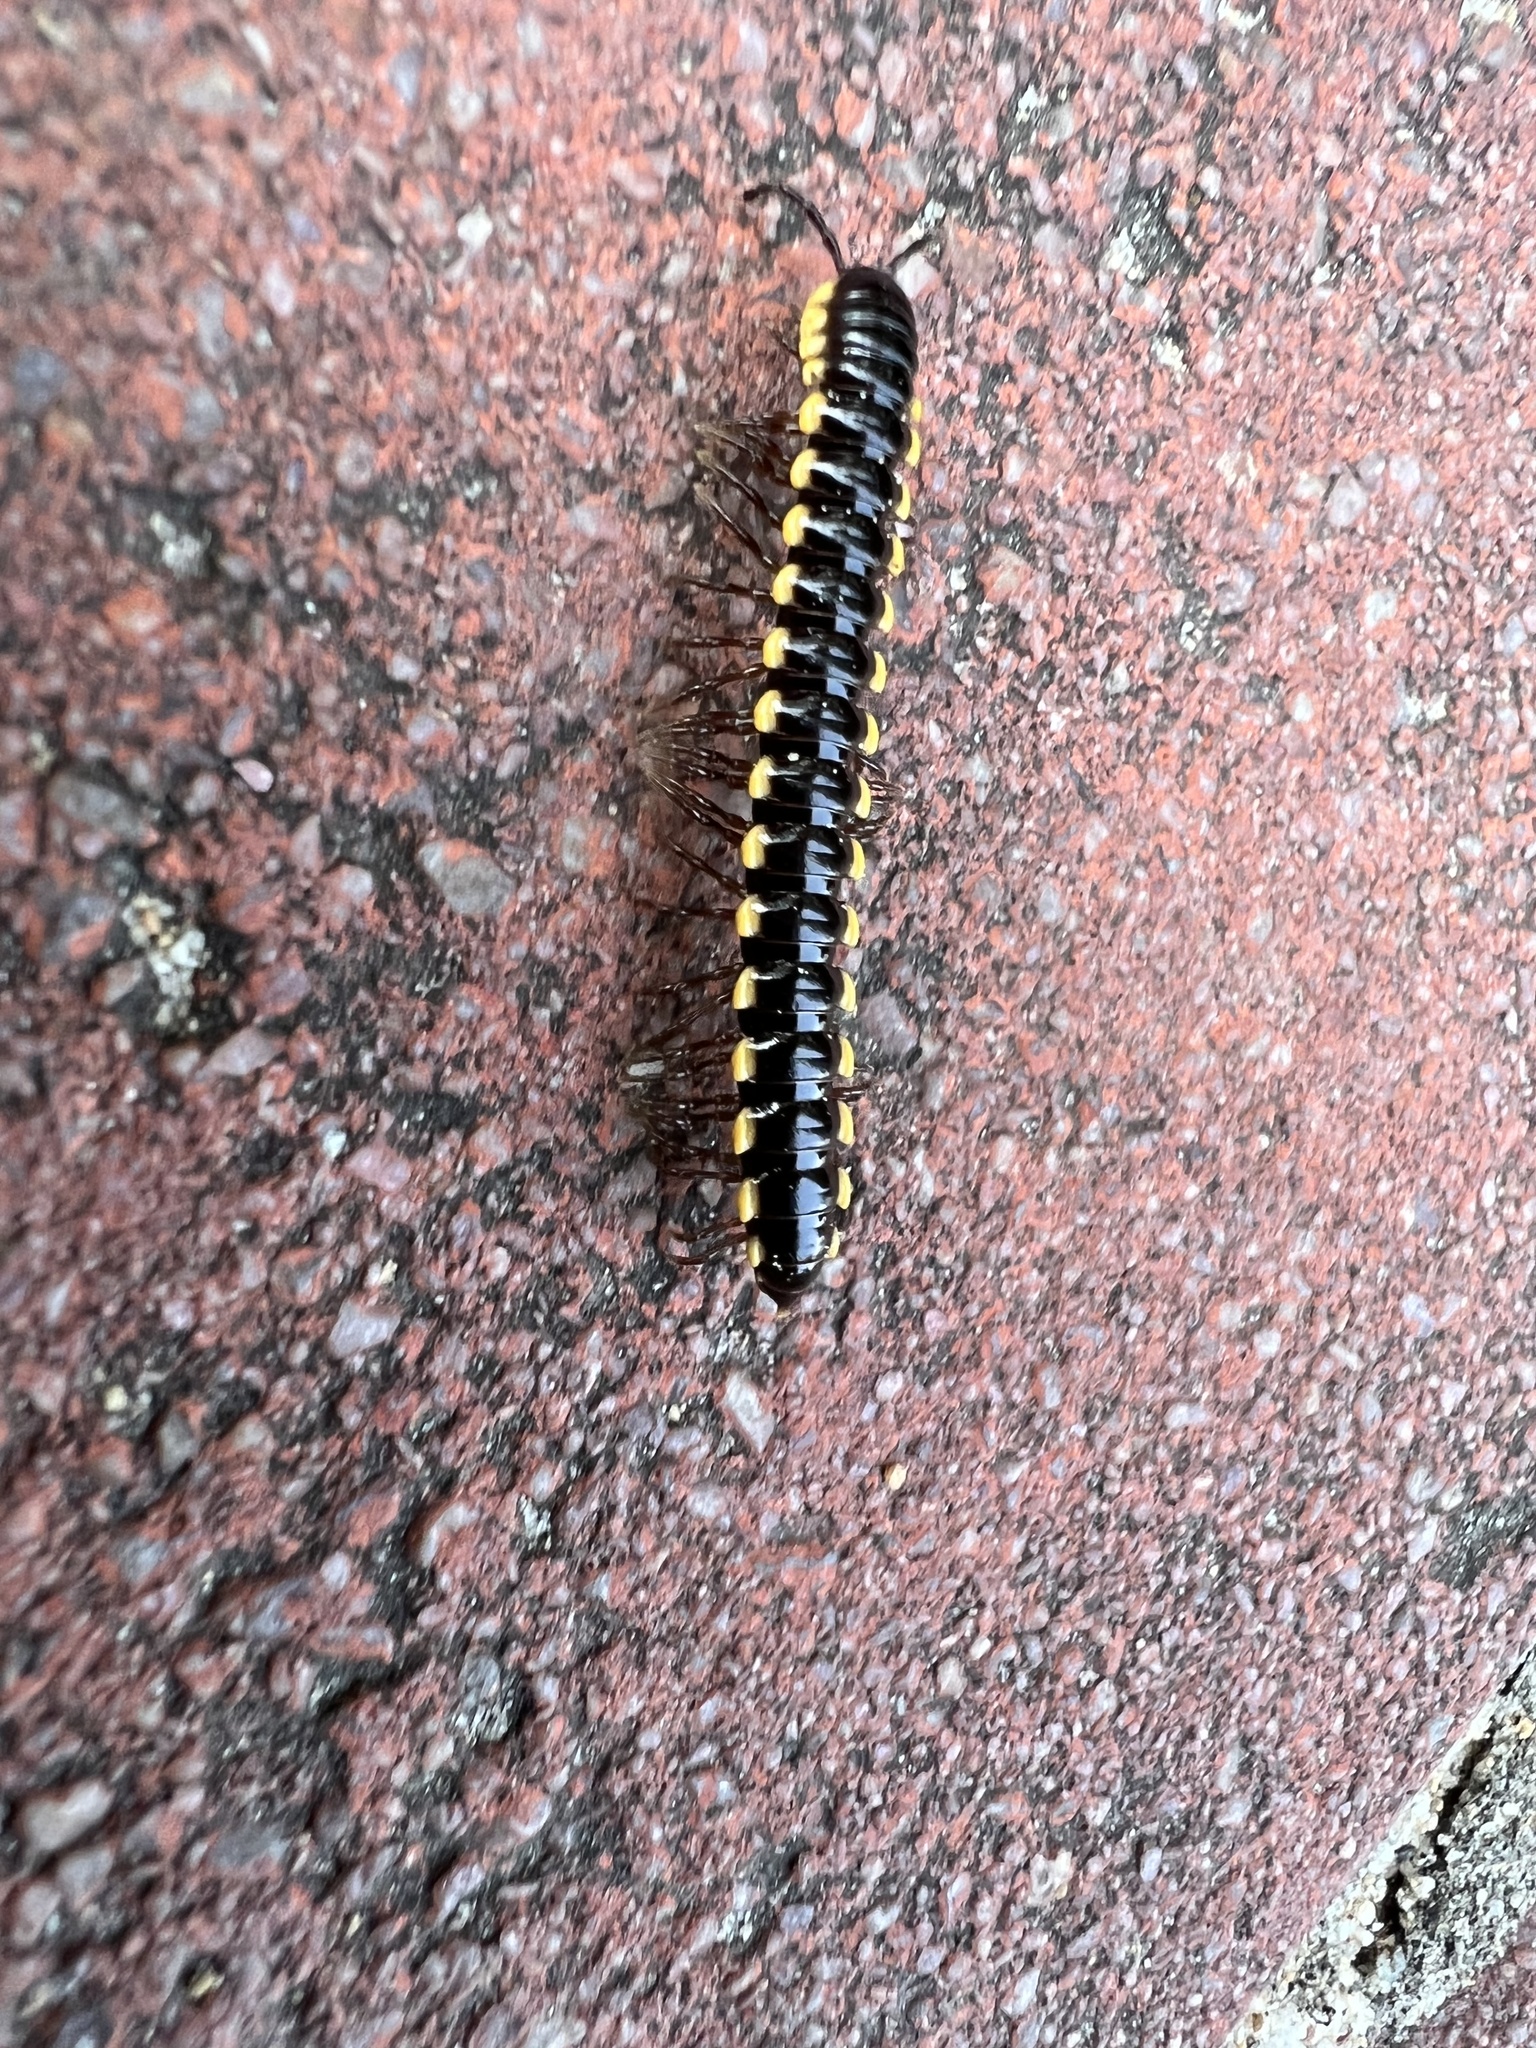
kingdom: Animalia
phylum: Arthropoda
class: Diplopoda
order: Polydesmida
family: Paradoxosomatidae
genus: Orthomorpha
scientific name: Orthomorpha coarctata
